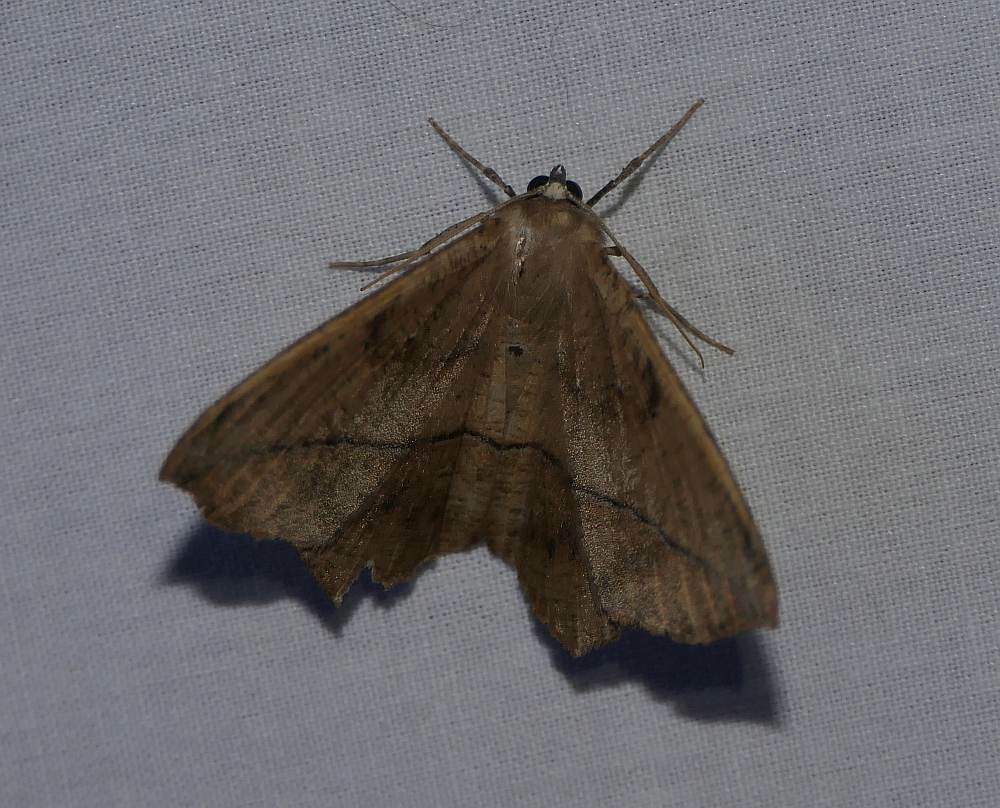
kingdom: Animalia
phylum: Arthropoda
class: Insecta
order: Lepidoptera
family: Geometridae
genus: Prochoerodes
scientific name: Prochoerodes lineola
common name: Large maple spanworm
